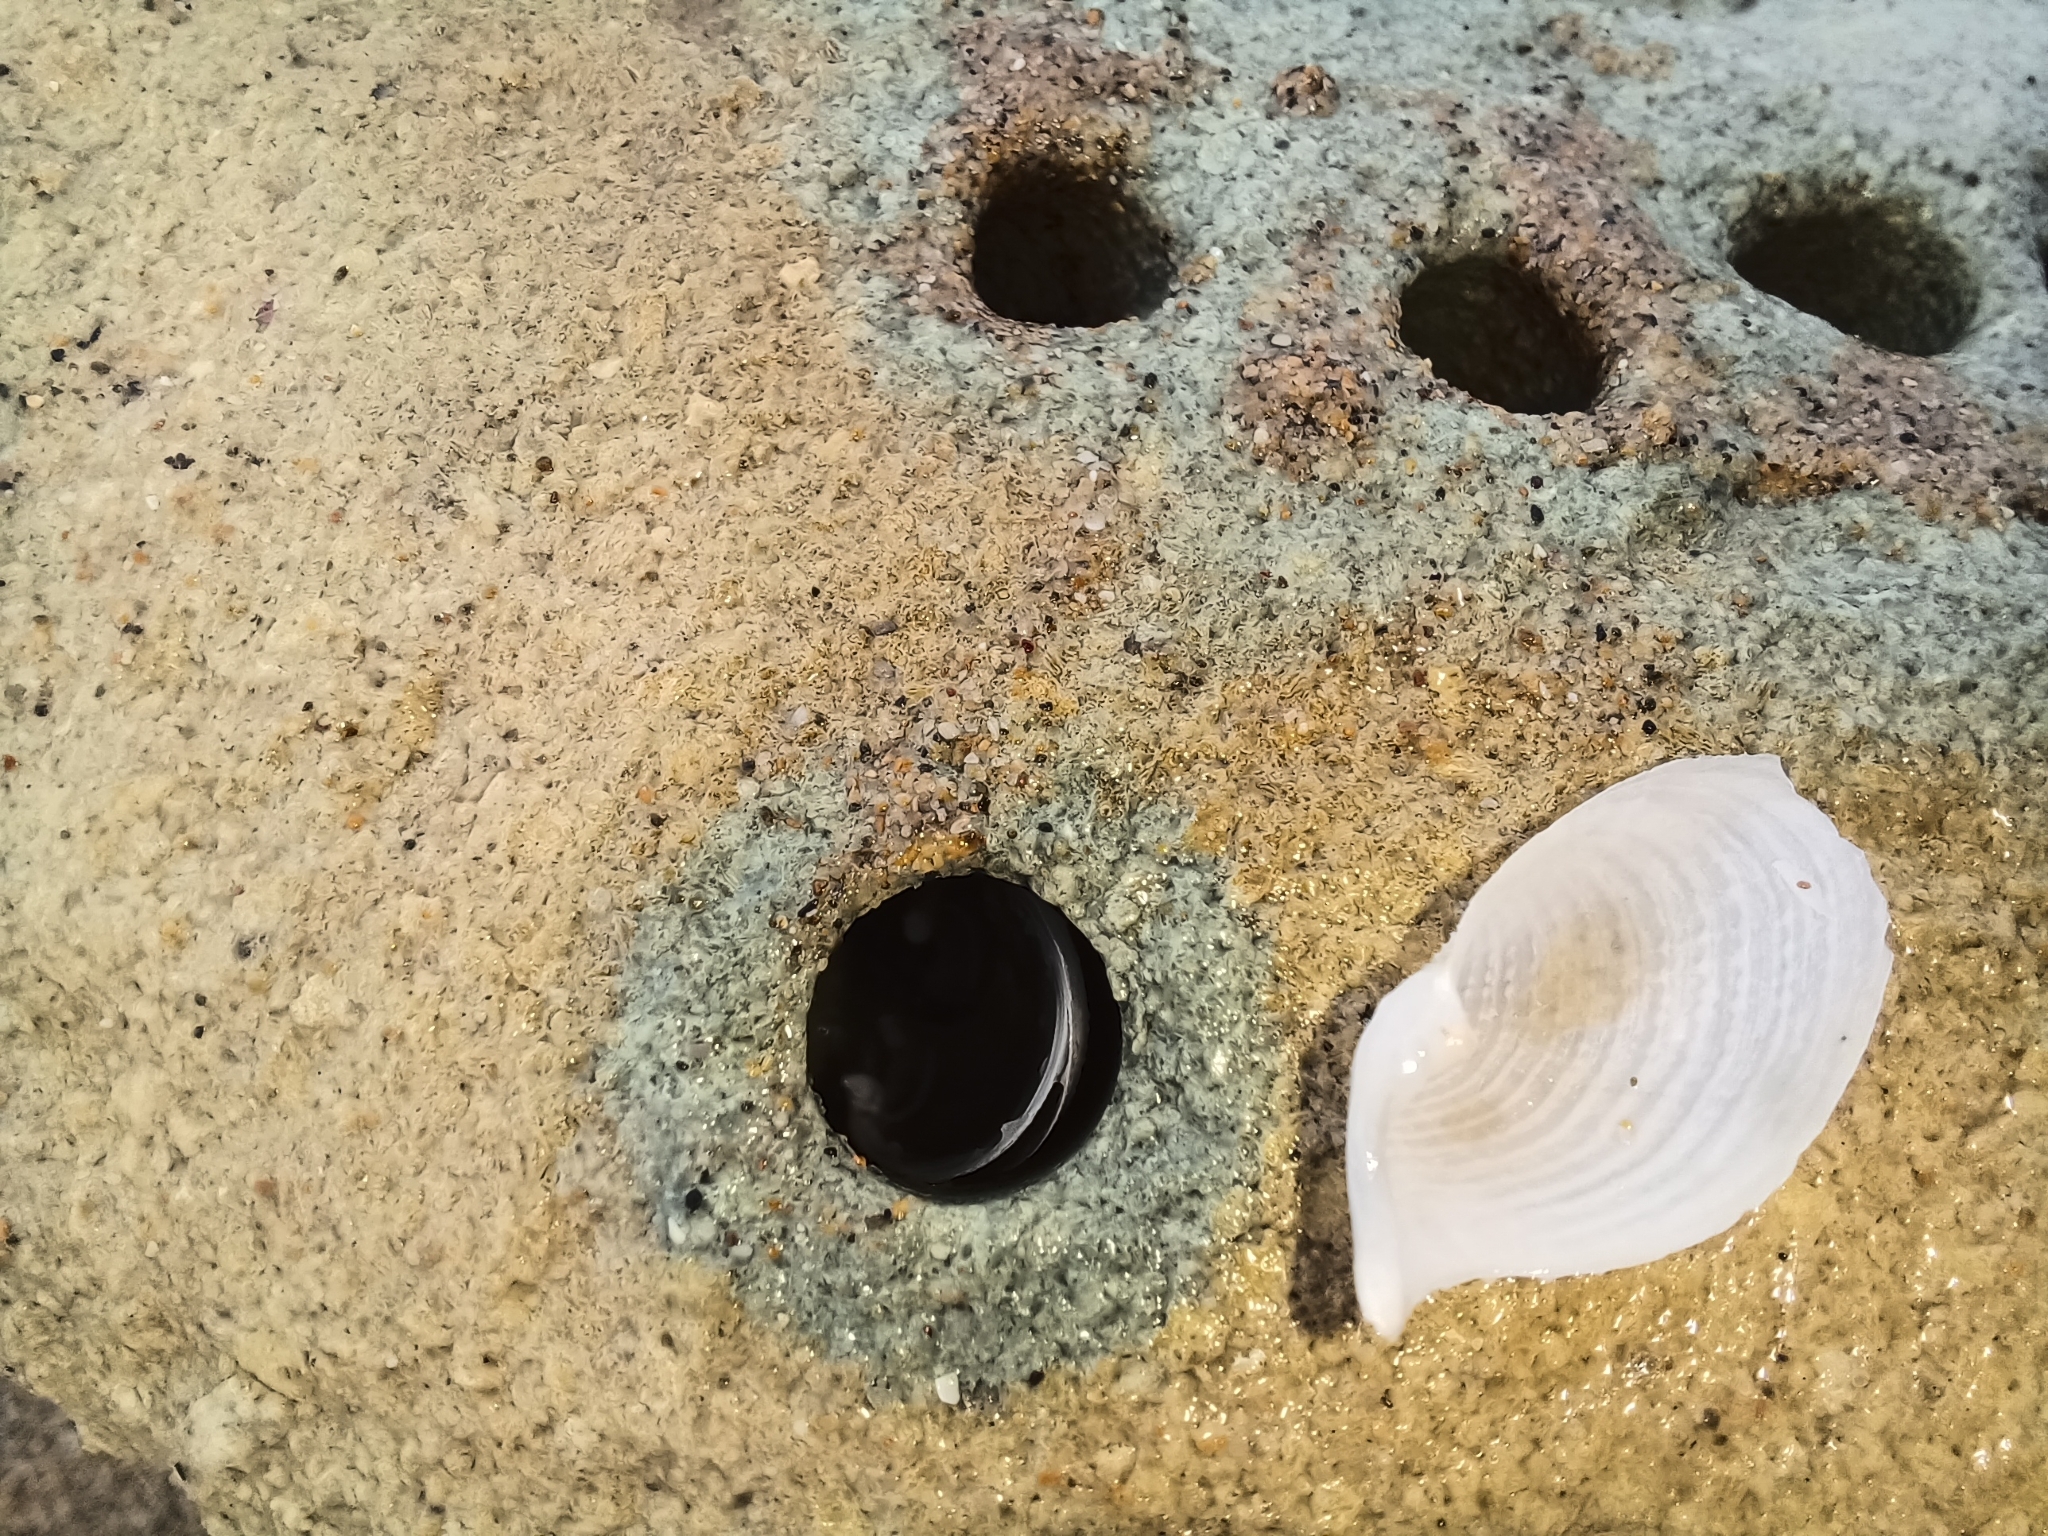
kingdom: Animalia
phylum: Mollusca
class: Bivalvia
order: Myida
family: Pholadidae
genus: Barnea
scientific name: Barnea obturamentum
